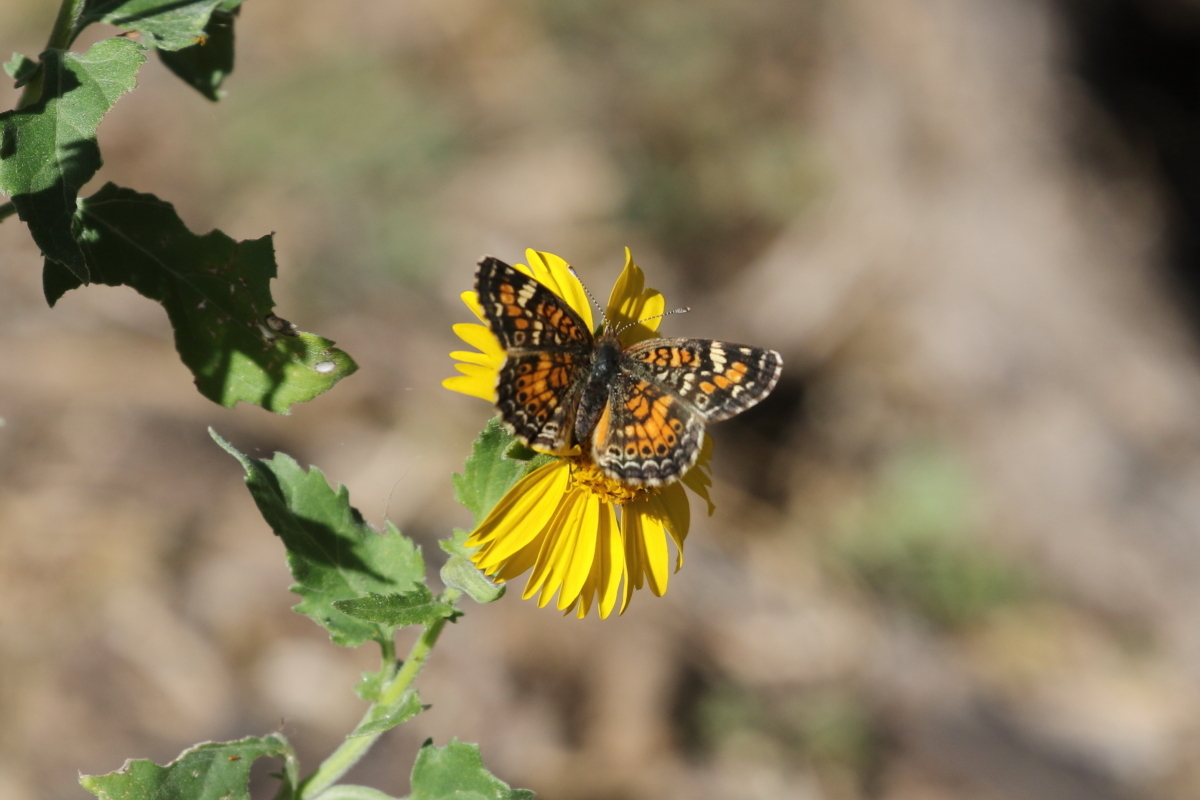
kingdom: Animalia
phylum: Arthropoda
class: Insecta
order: Lepidoptera
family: Nymphalidae
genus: Phyciodes
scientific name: Phyciodes phaon
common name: Phaon crescent
